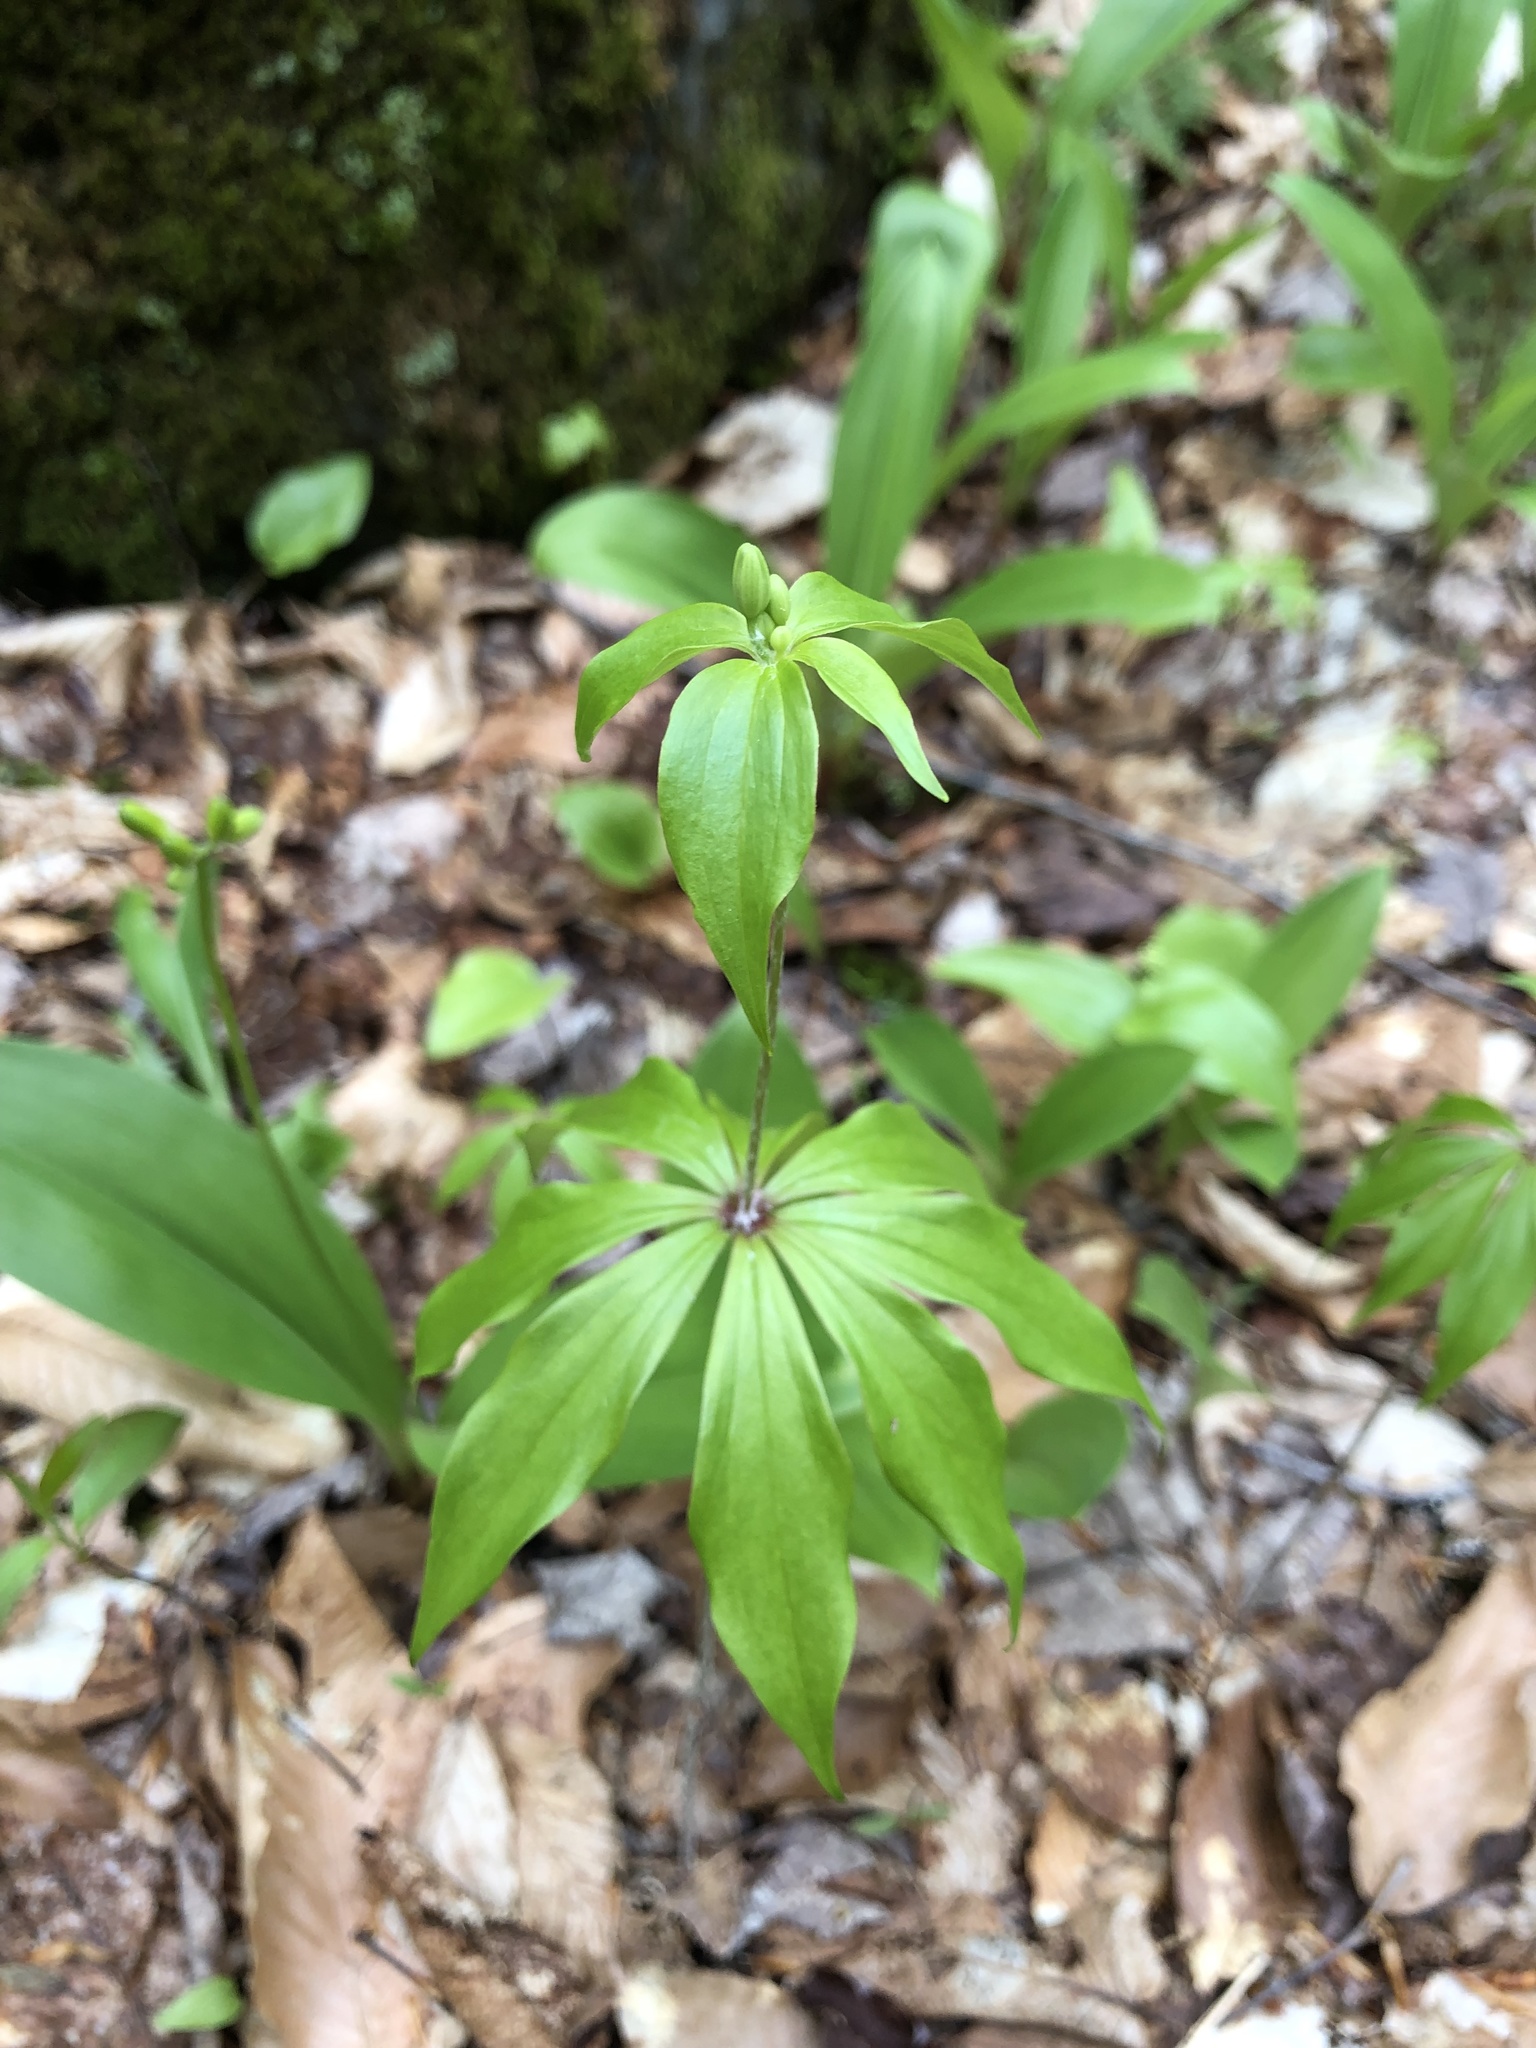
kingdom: Plantae
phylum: Tracheophyta
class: Liliopsida
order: Liliales
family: Liliaceae
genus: Medeola
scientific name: Medeola virginiana
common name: Indian cucumber-root
